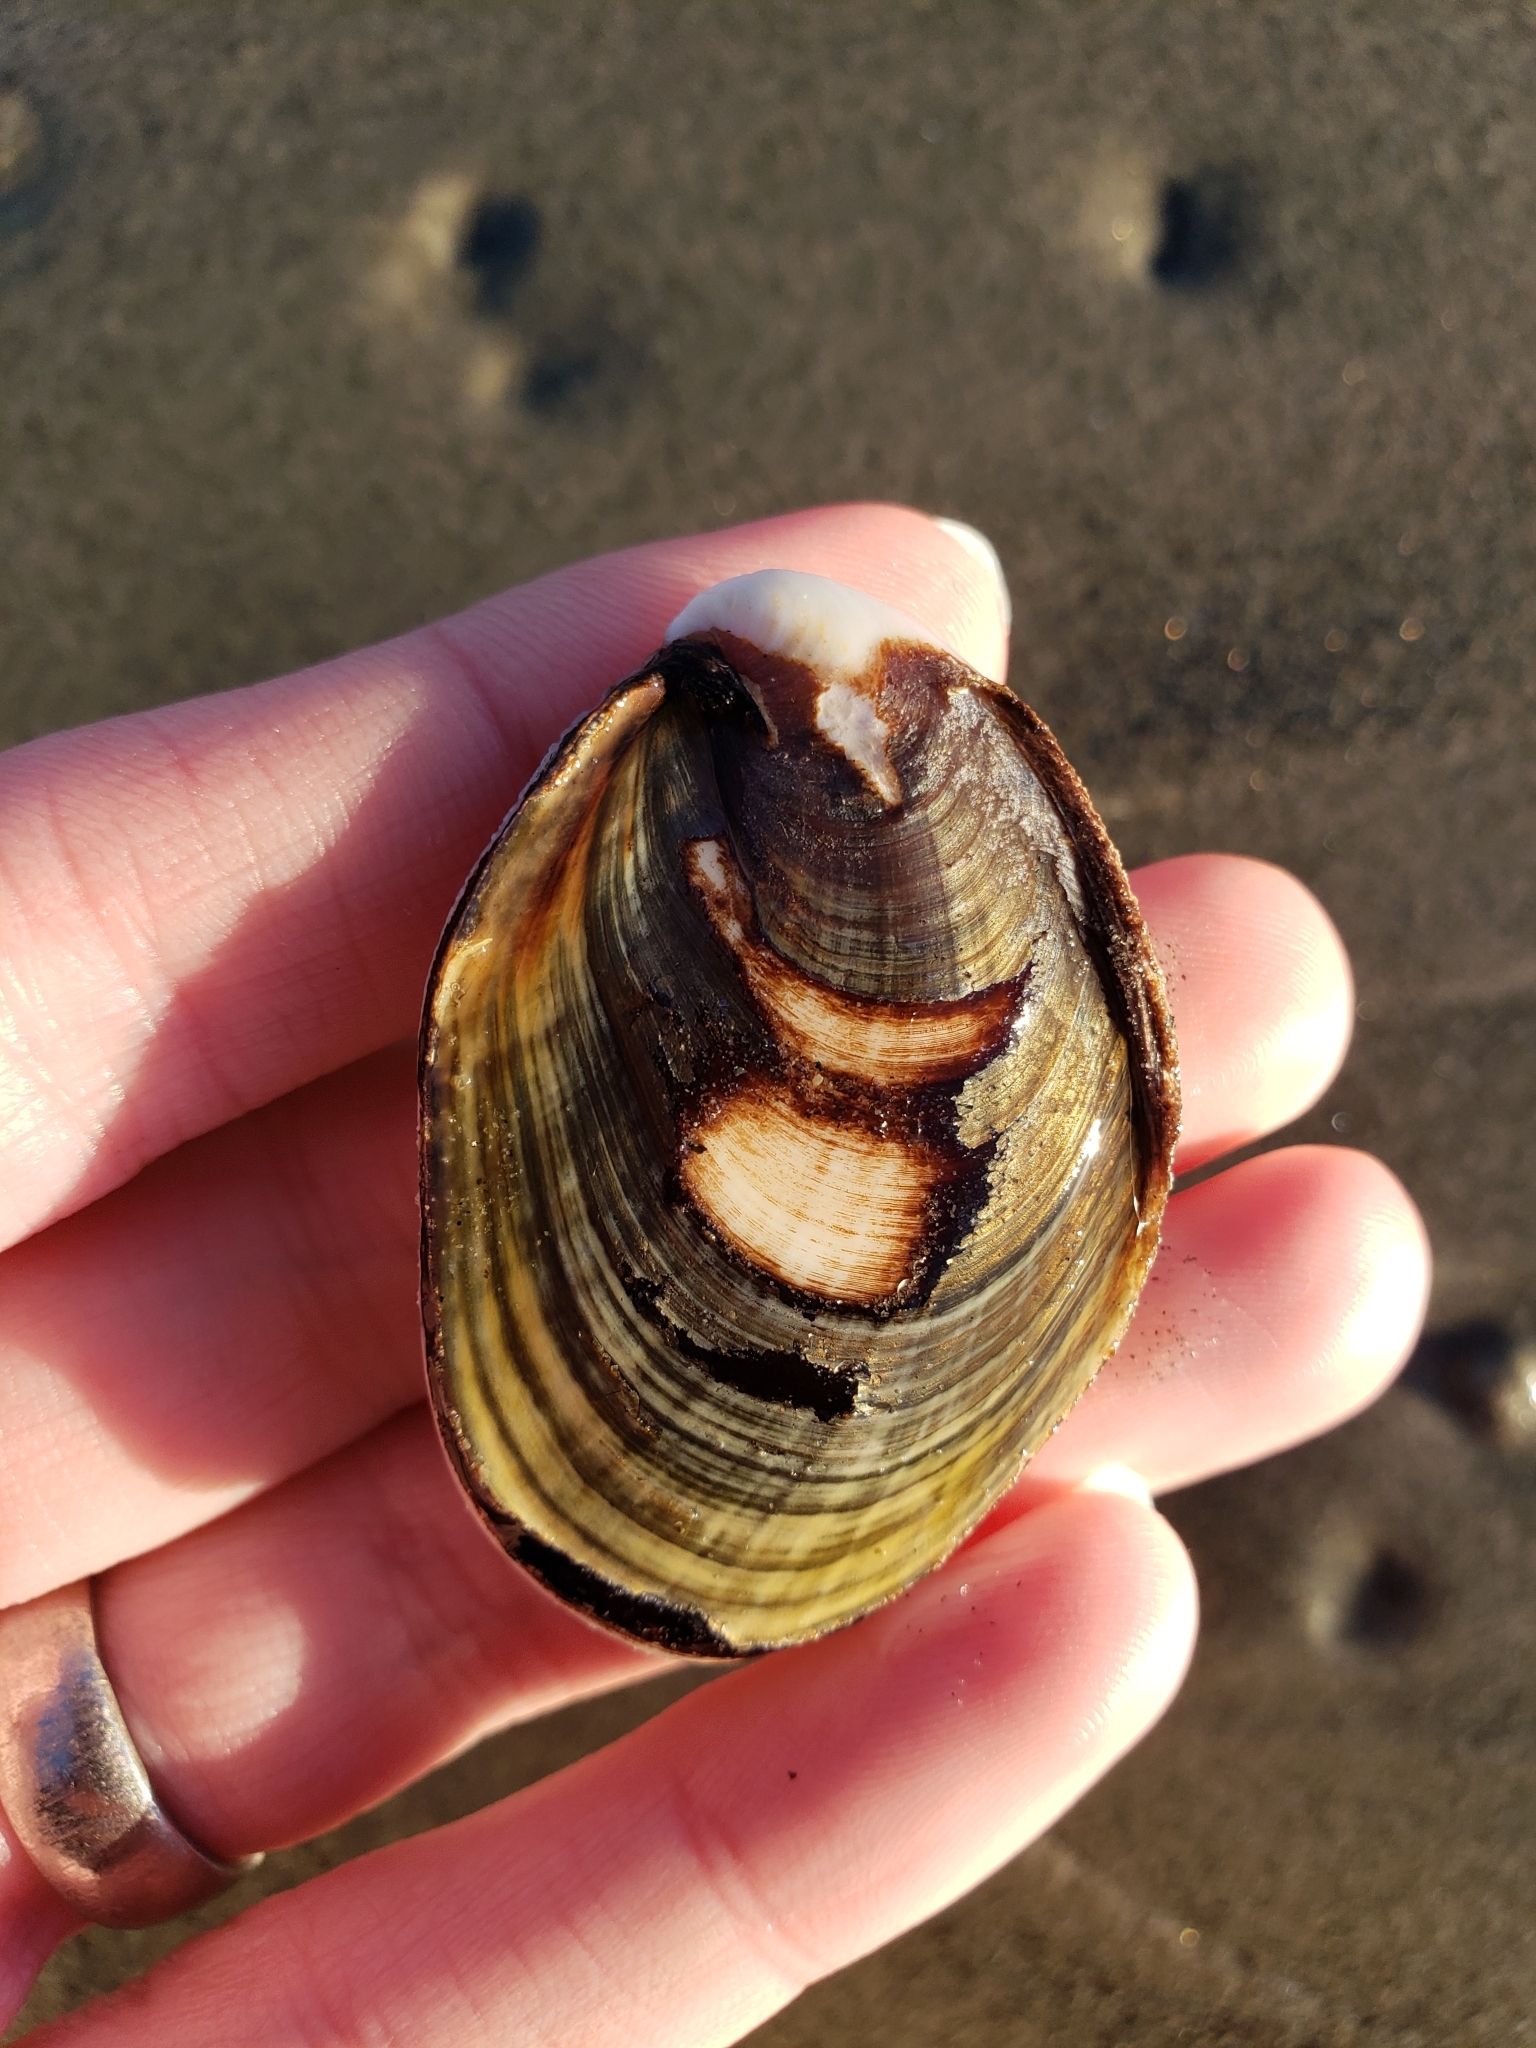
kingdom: Animalia
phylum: Mollusca
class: Gastropoda
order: Trochida
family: Turbinidae
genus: Megastraea
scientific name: Megastraea undosa
